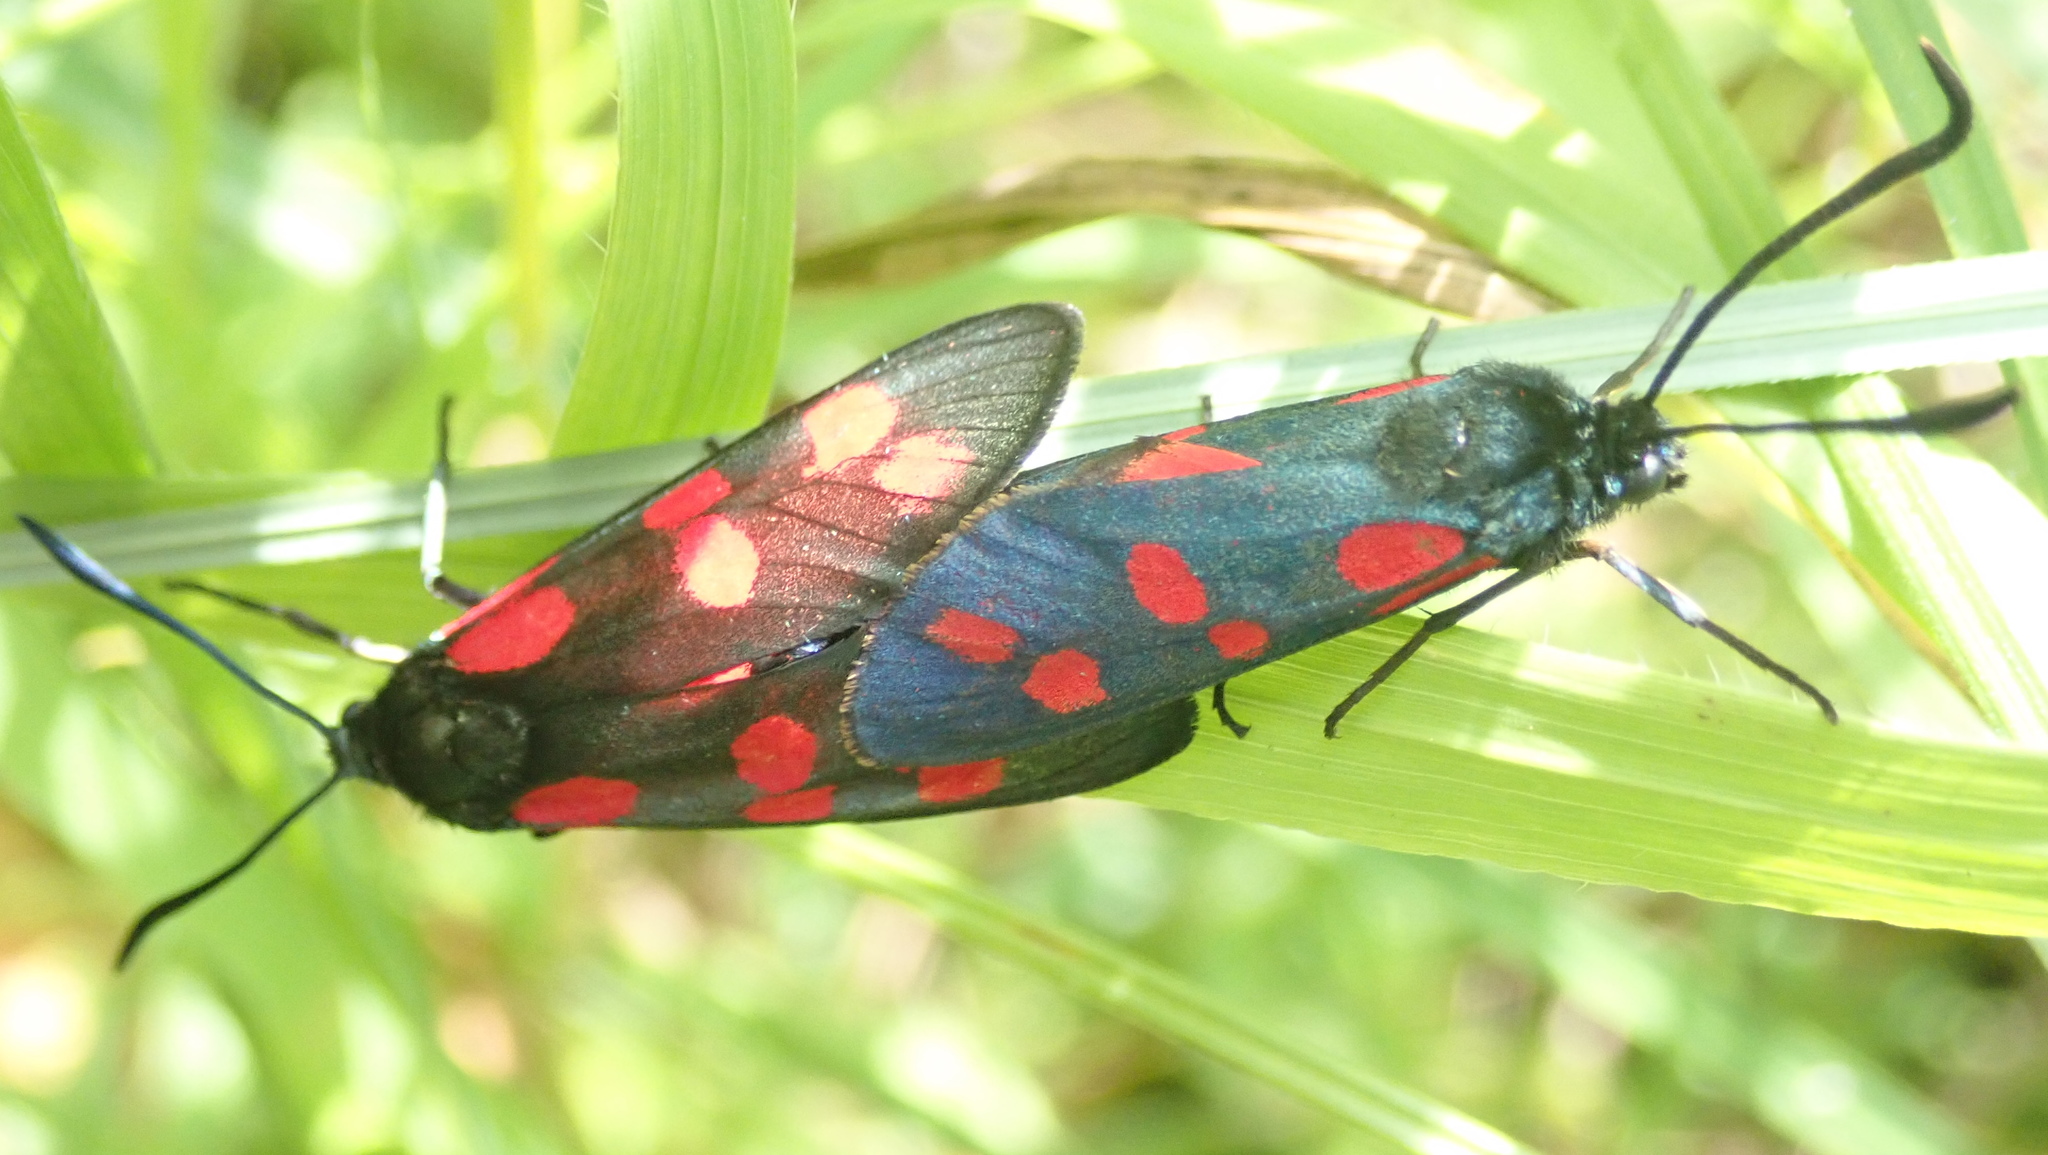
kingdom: Animalia
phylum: Arthropoda
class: Insecta
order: Lepidoptera
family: Zygaenidae
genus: Zygaena
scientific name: Zygaena filipendulae
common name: Six-spot burnet
